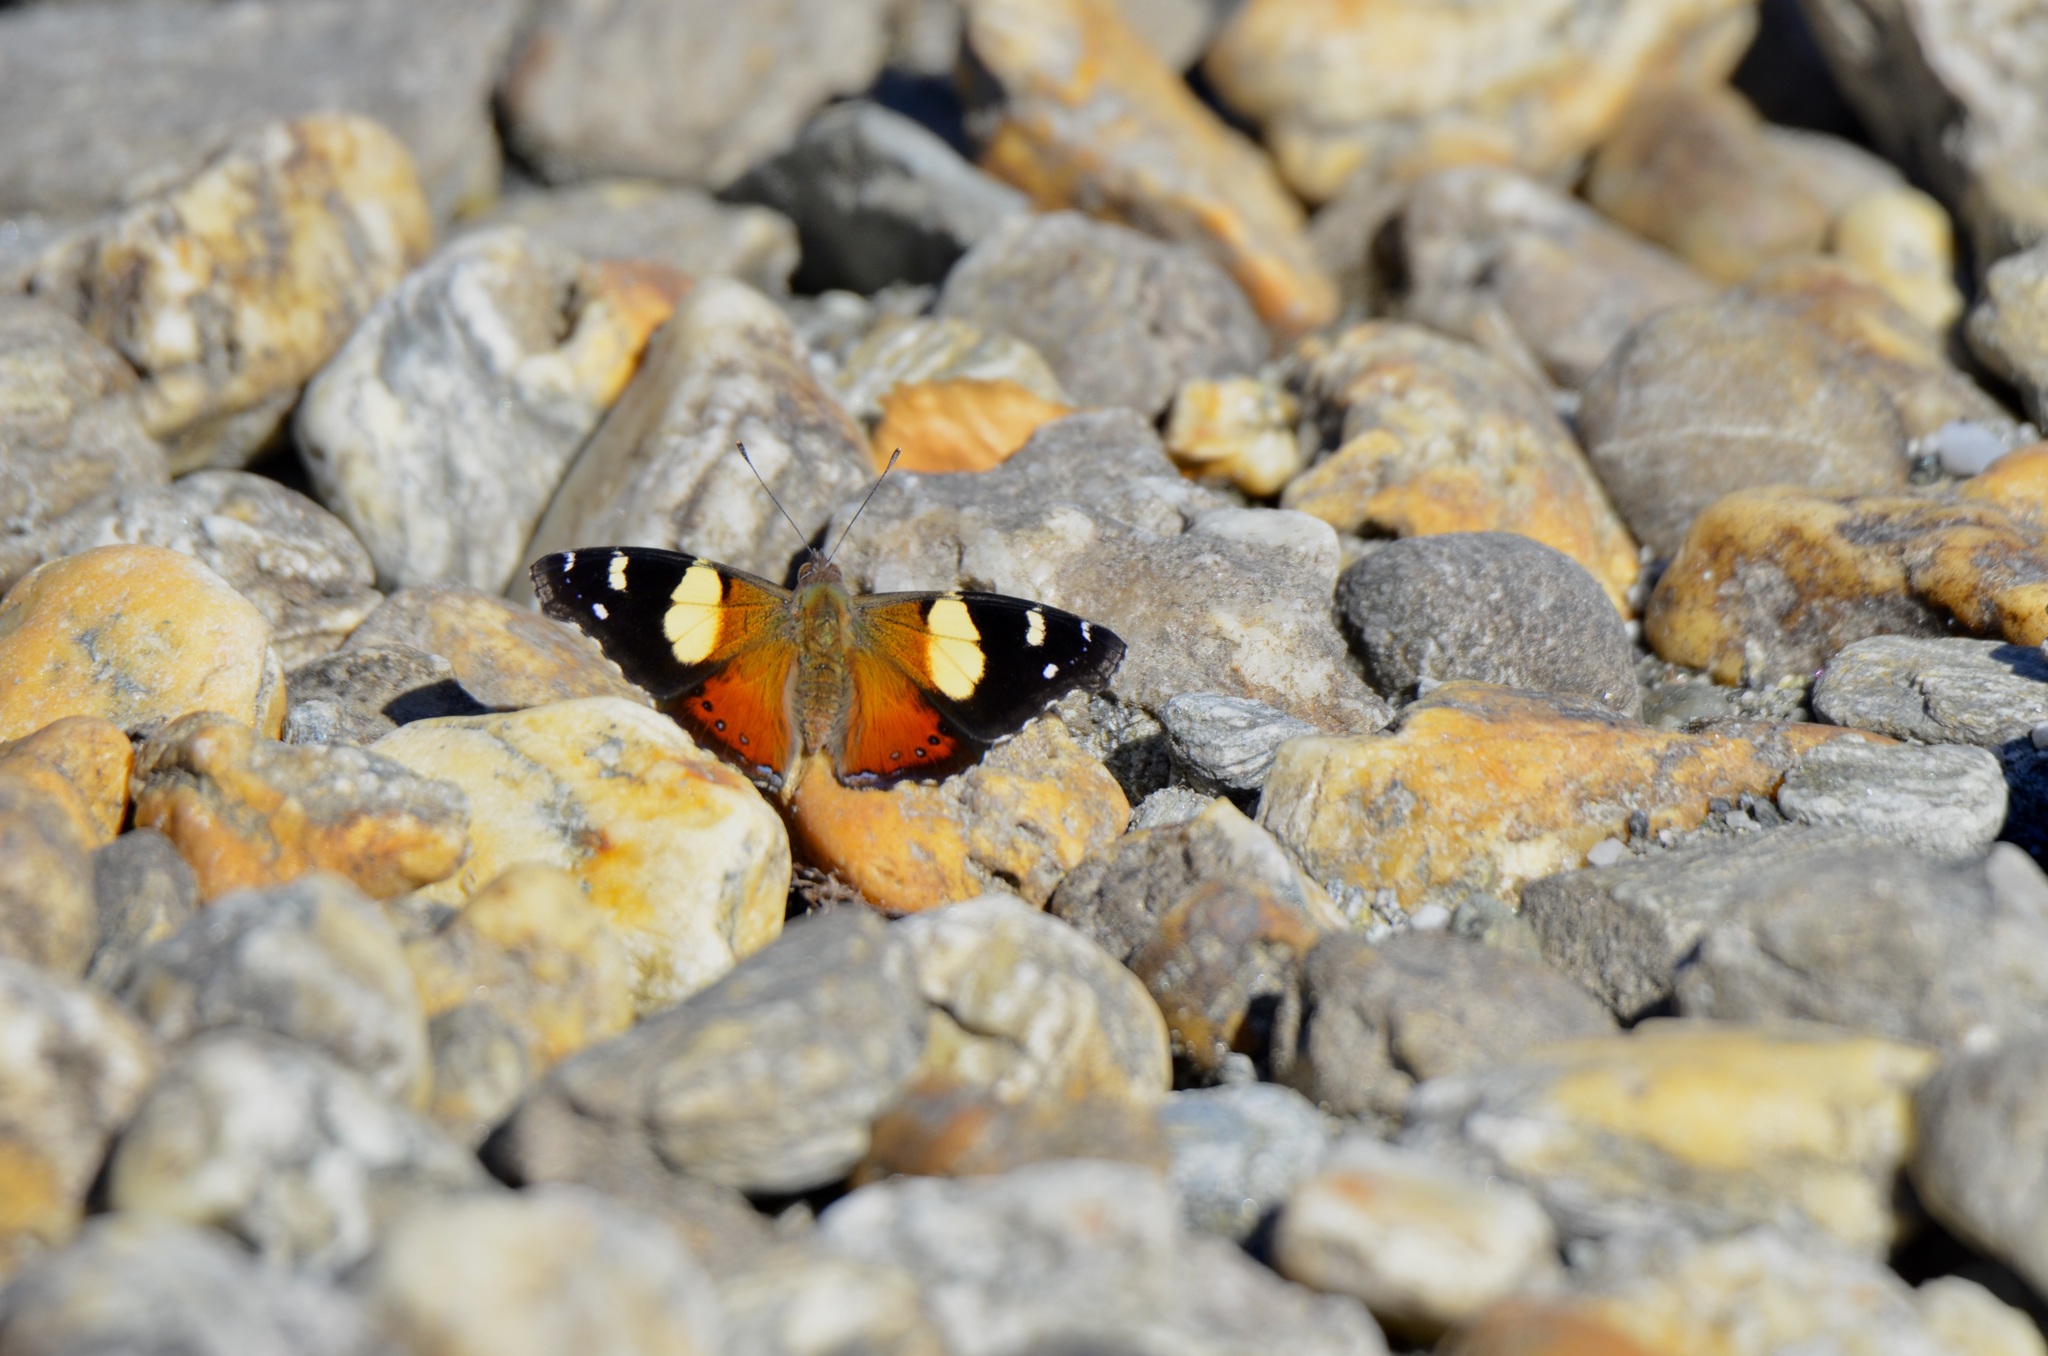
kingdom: Animalia
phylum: Arthropoda
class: Insecta
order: Lepidoptera
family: Nymphalidae
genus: Vanessa
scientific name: Vanessa itea
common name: Yellow admiral
